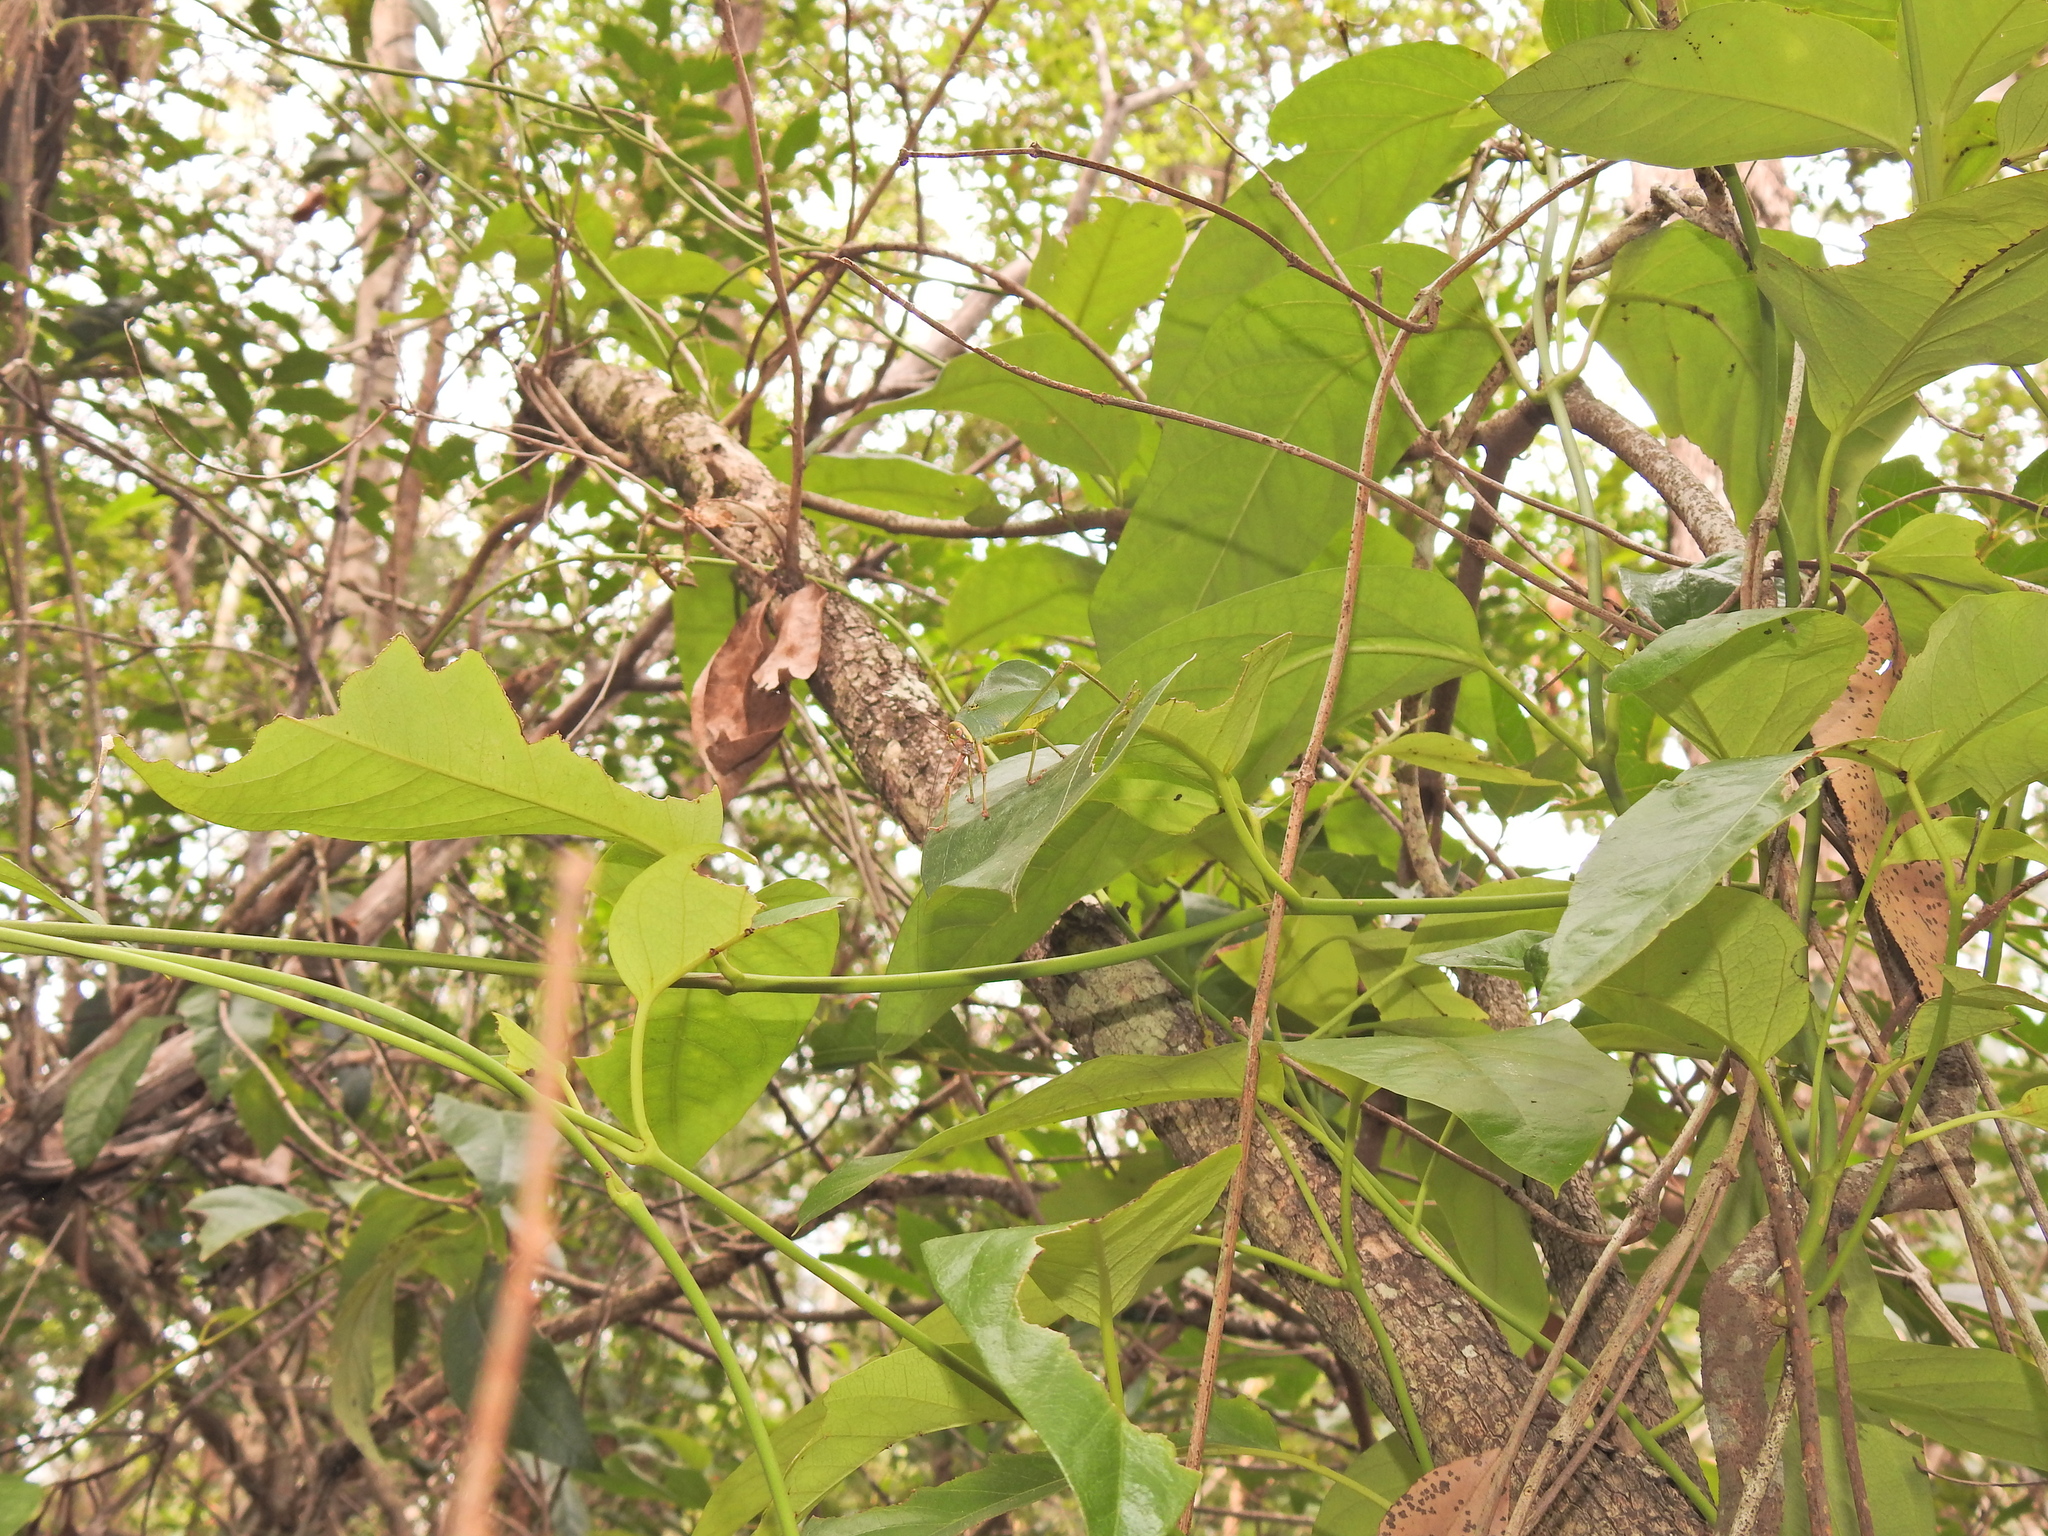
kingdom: Animalia
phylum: Arthropoda
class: Insecta
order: Orthoptera
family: Tettigoniidae
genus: Ozphyllum
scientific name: Ozphyllum naskreckii
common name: Neskrecki's bush katydid
